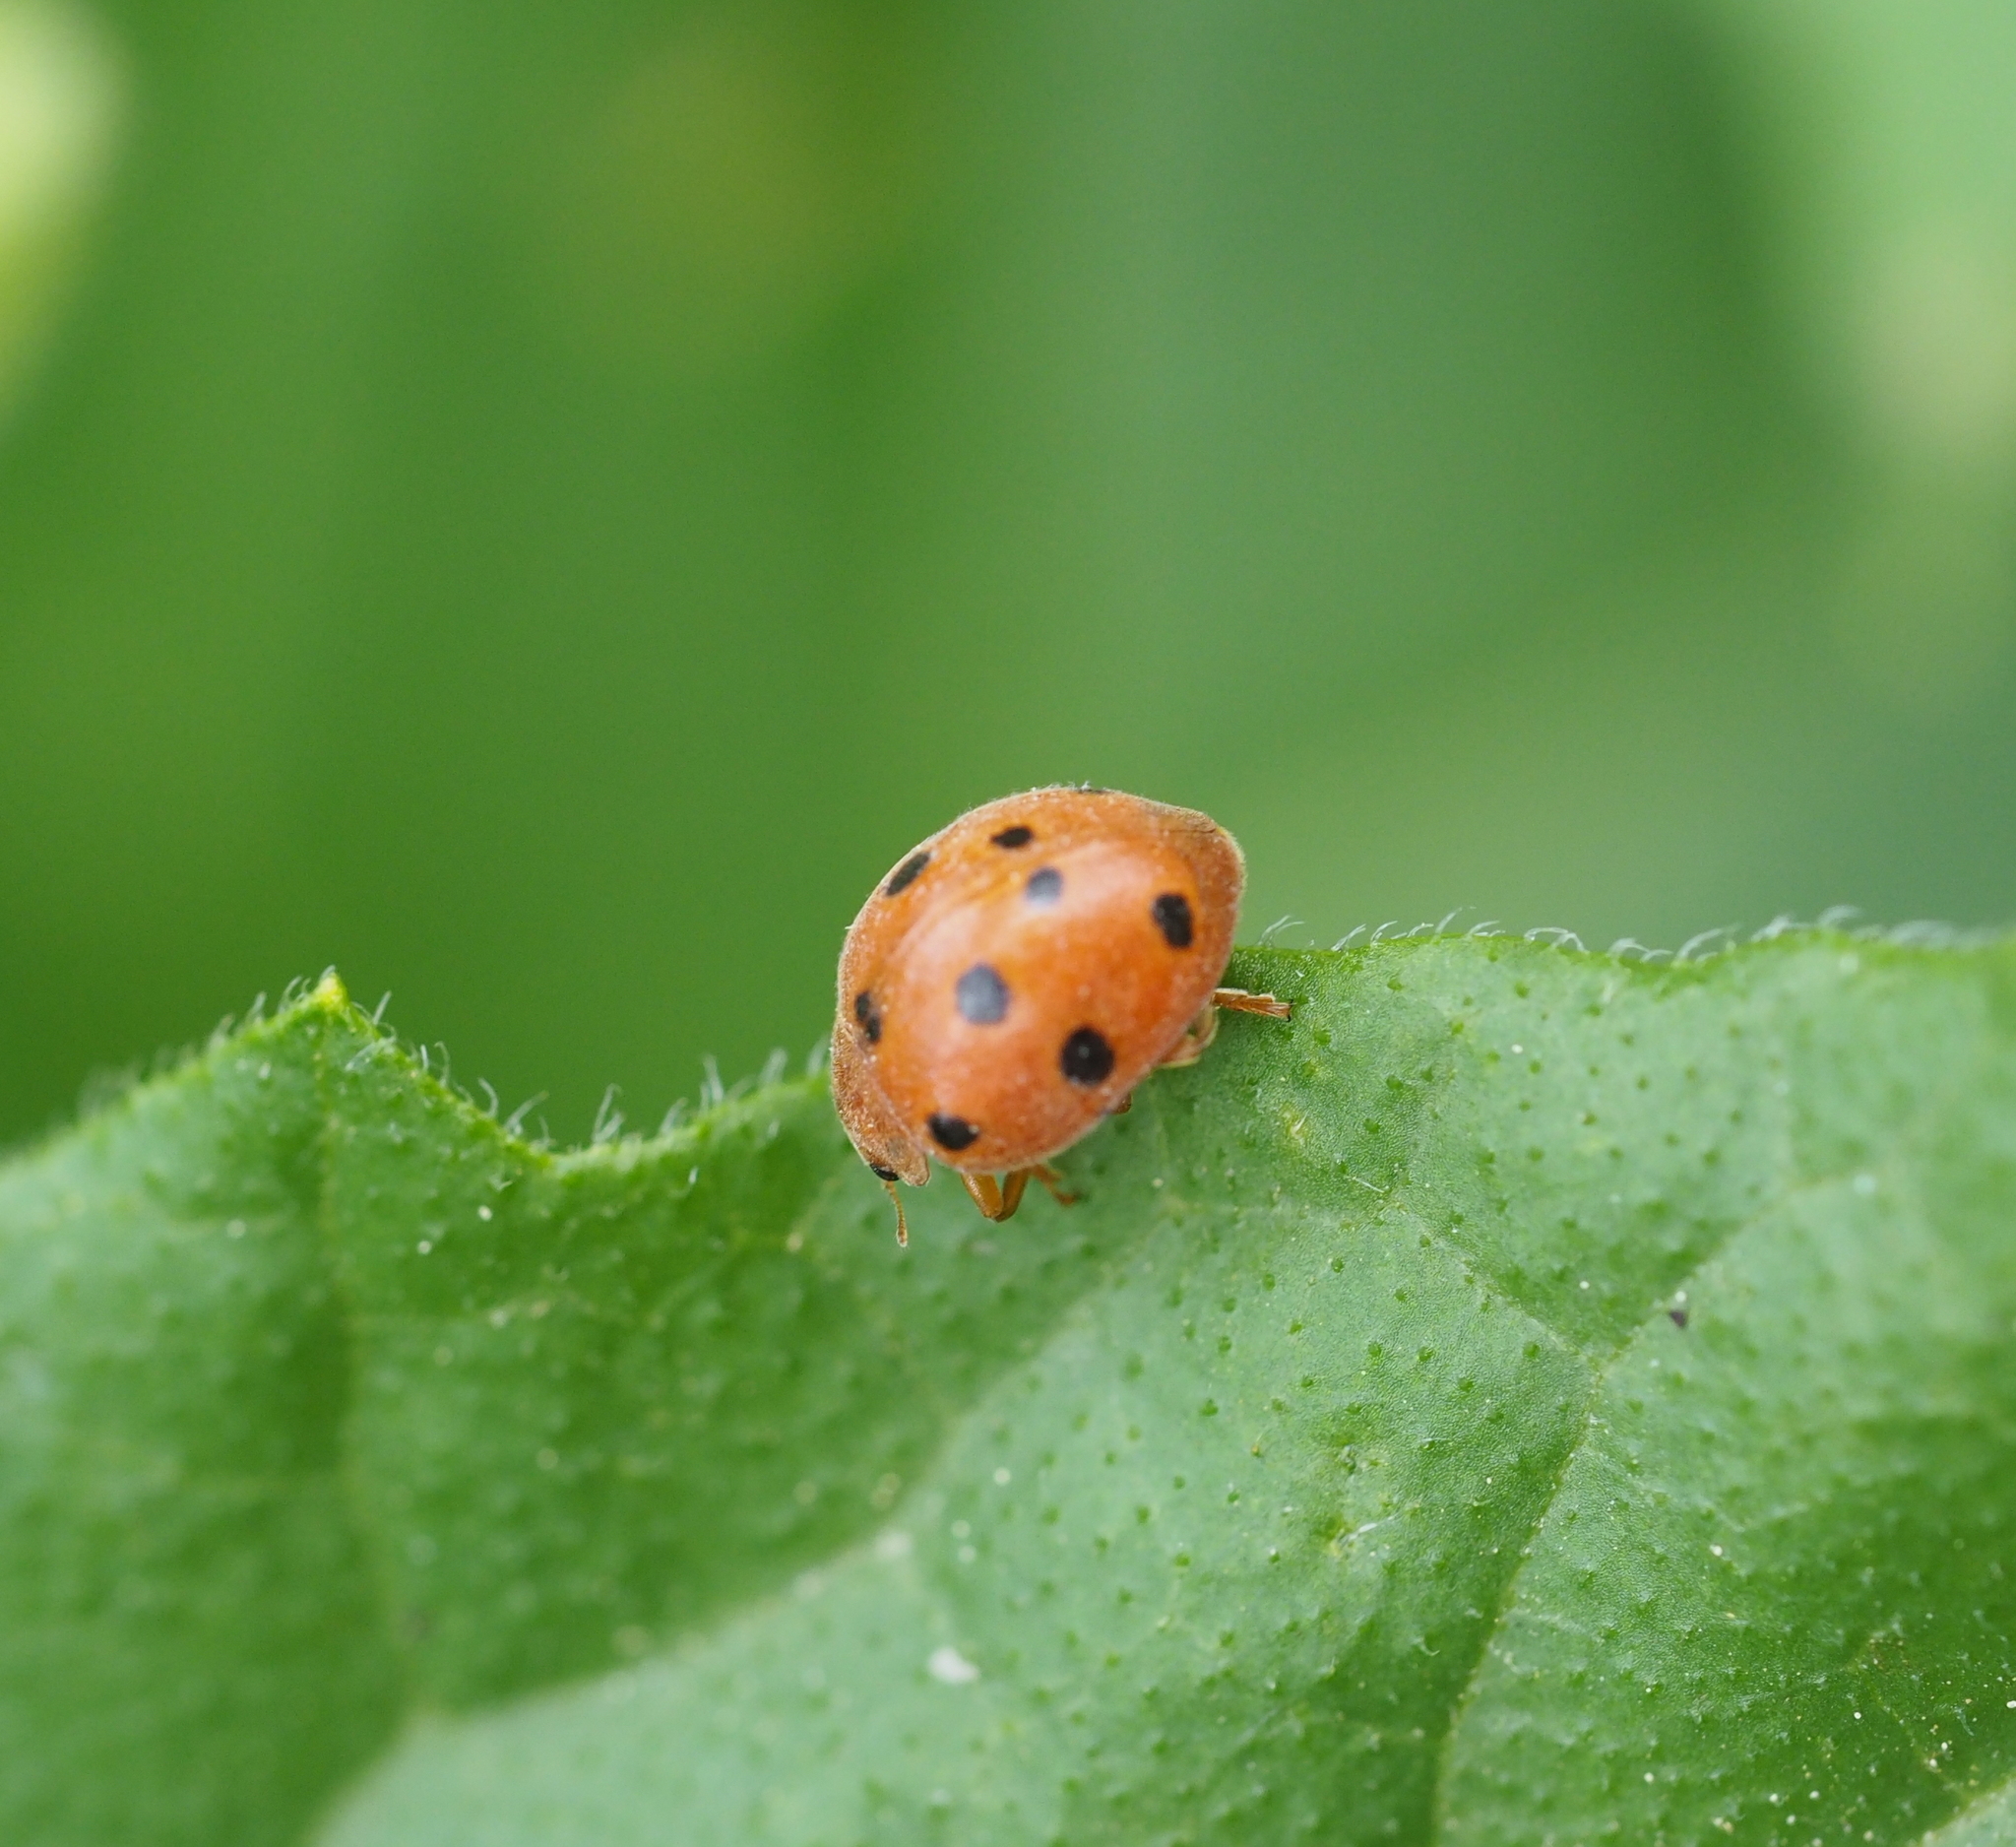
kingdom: Animalia
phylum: Arthropoda
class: Insecta
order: Coleoptera
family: Coccinellidae
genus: Henosepilachna
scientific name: Henosepilachna argus
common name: Bryony ladybird
